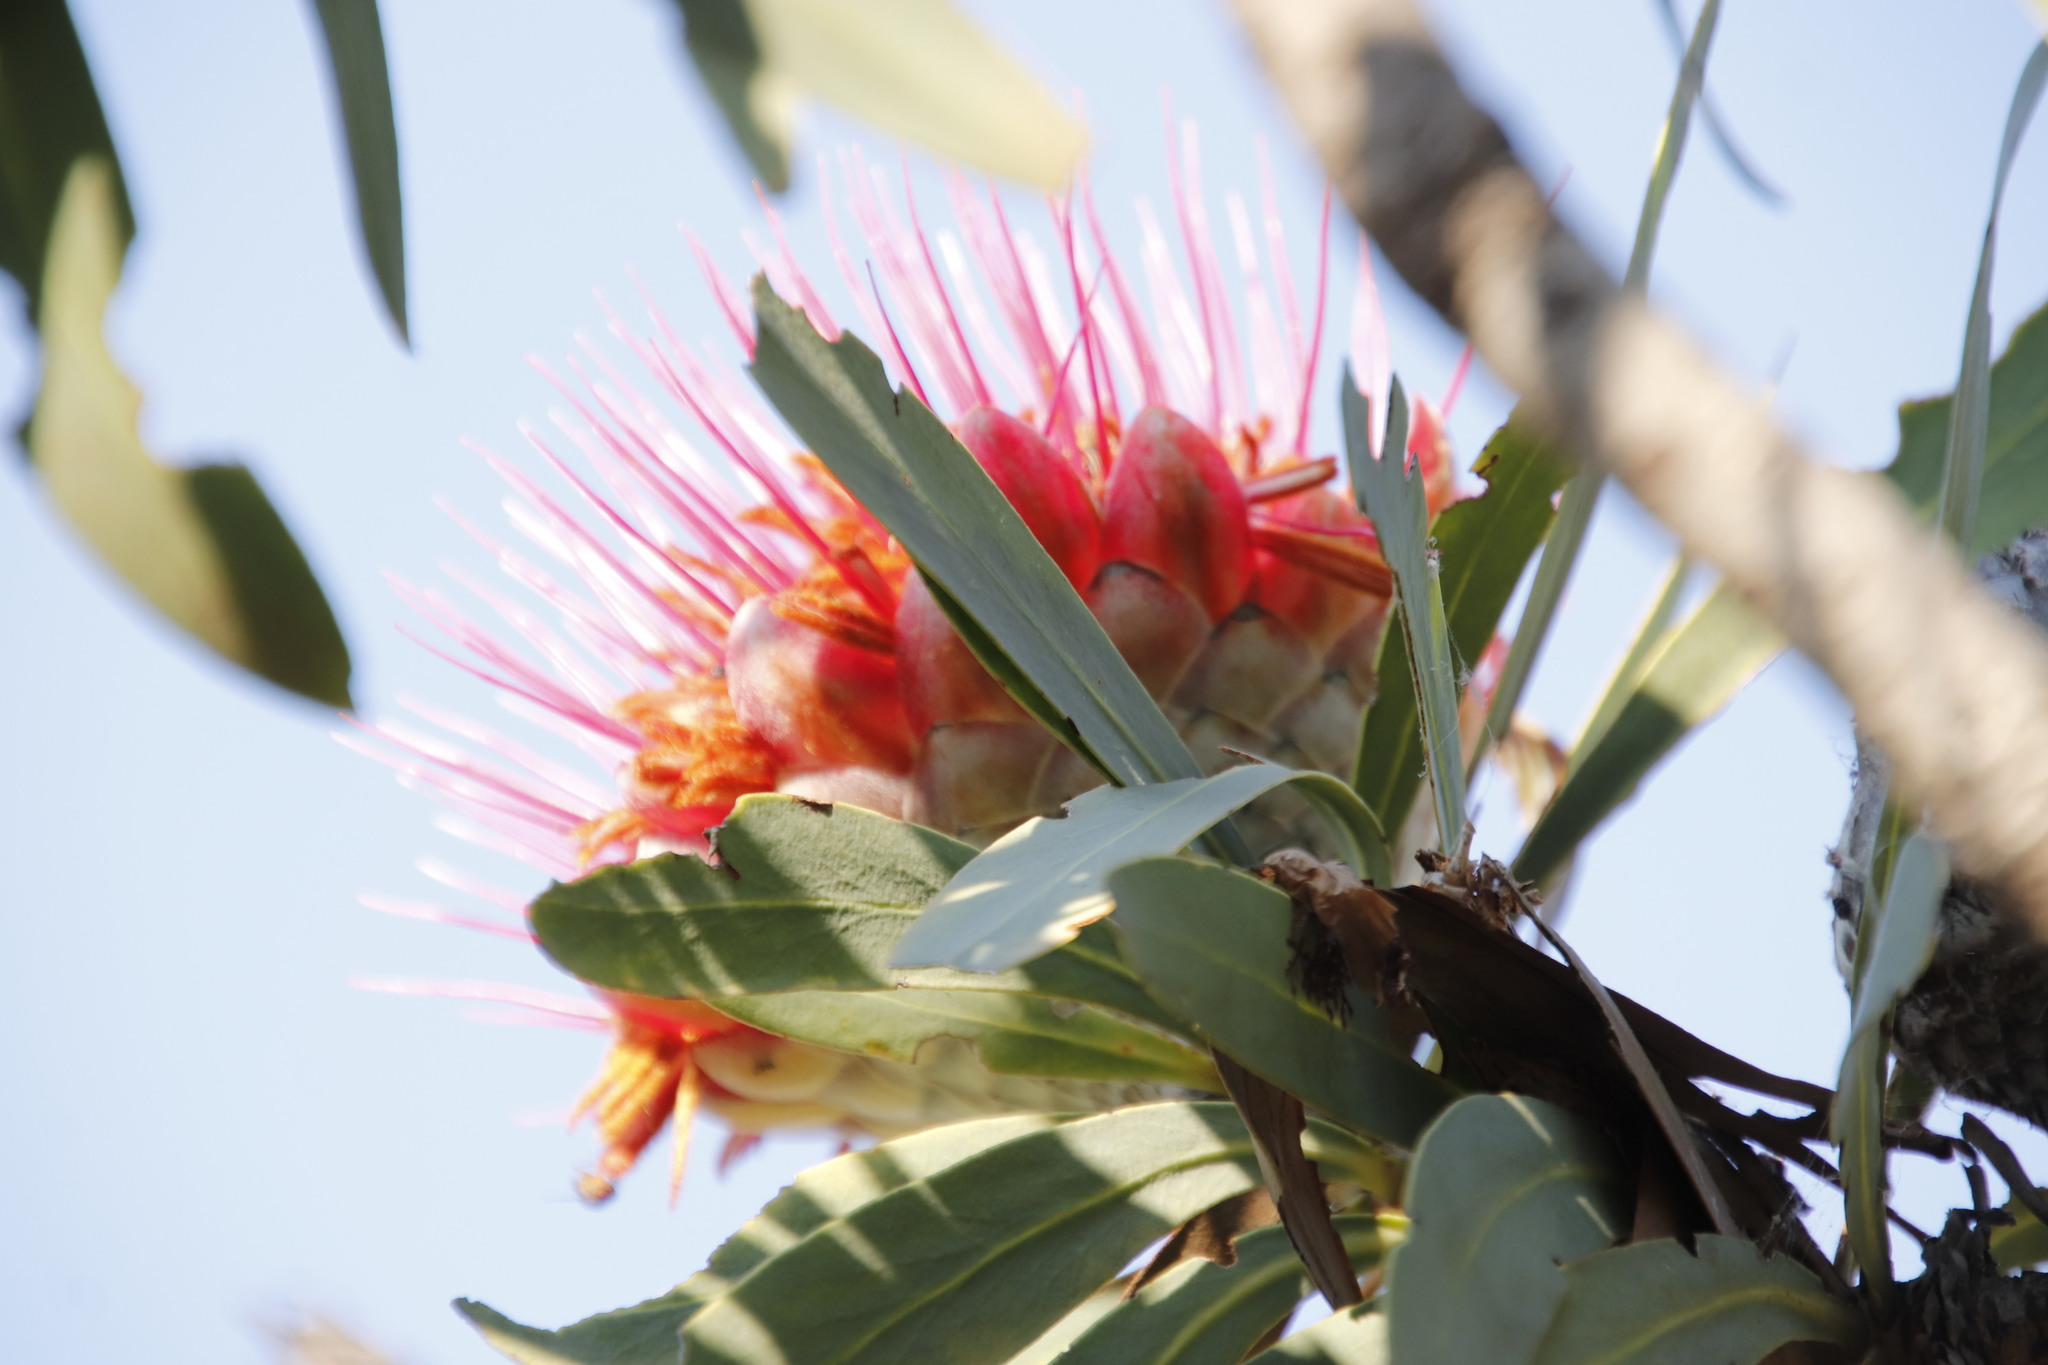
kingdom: Plantae
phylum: Tracheophyta
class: Magnoliopsida
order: Proteales
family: Proteaceae
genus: Protea
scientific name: Protea laetans
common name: Blyde protea
